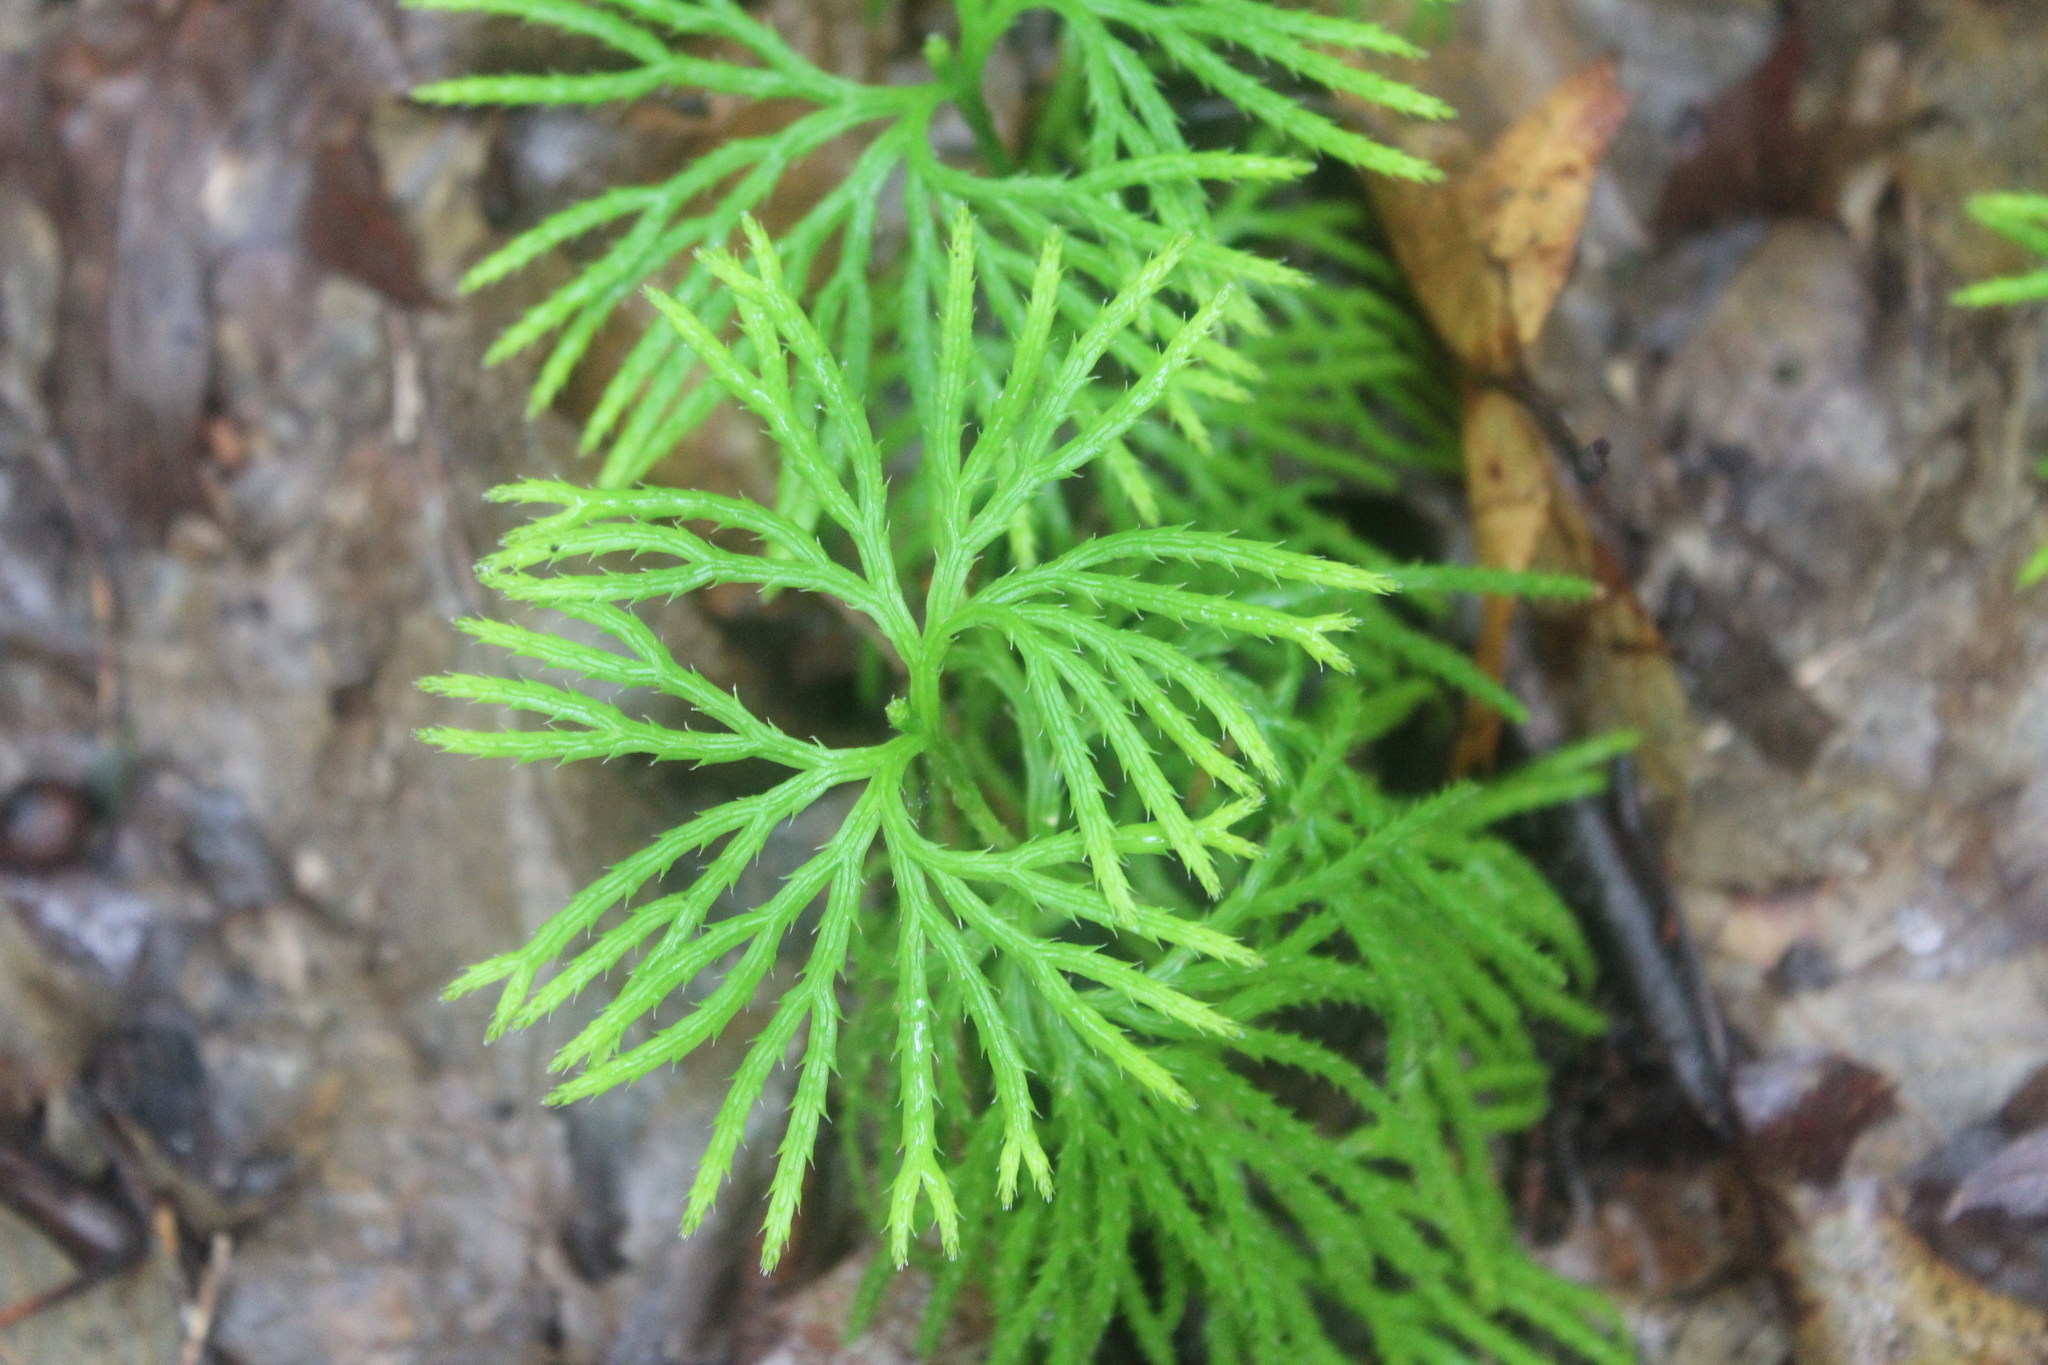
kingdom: Plantae
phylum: Tracheophyta
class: Lycopodiopsida
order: Lycopodiales
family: Lycopodiaceae
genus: Diphasiastrum
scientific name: Diphasiastrum digitatum
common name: Southern running-pine
